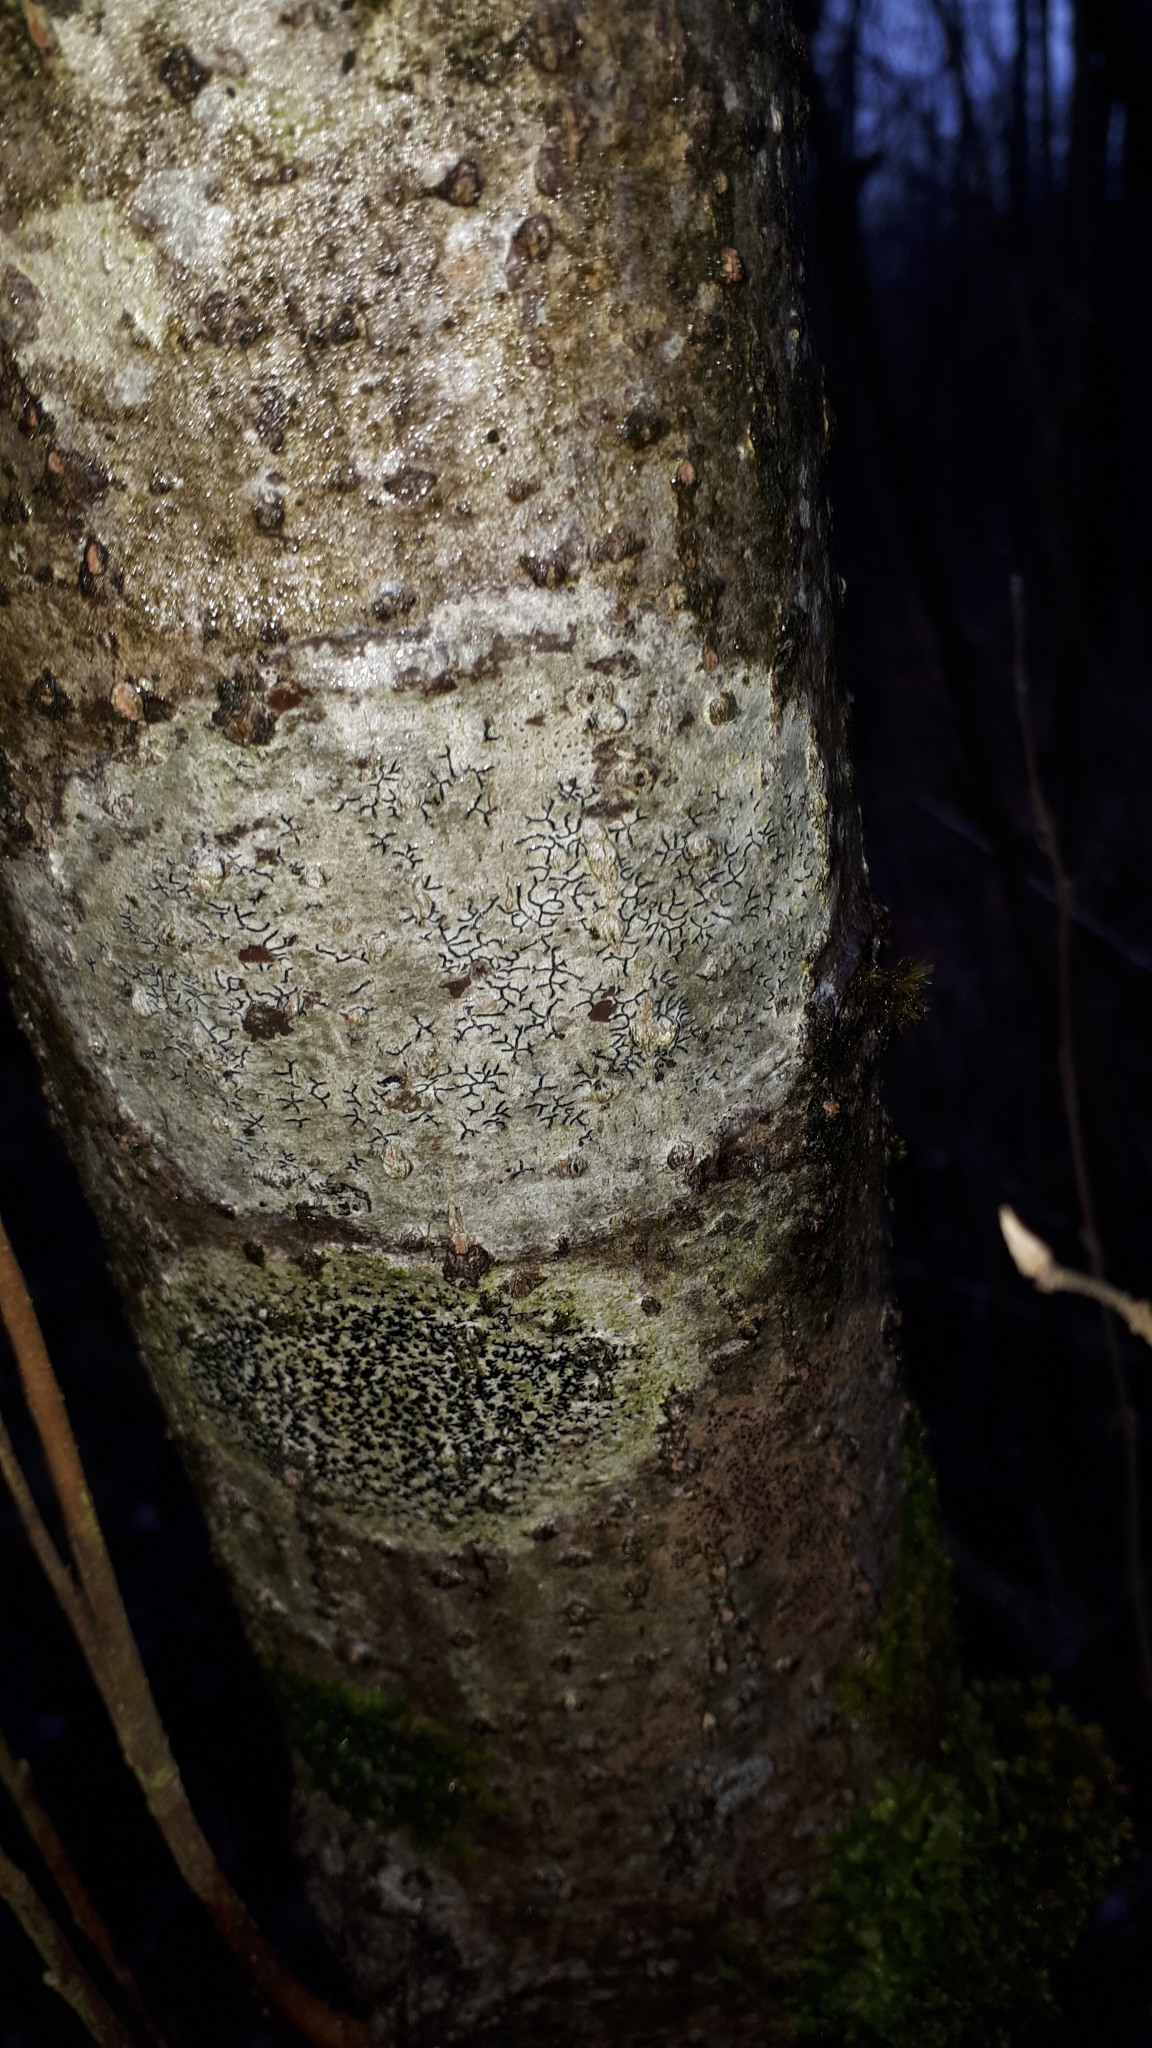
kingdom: Fungi
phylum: Ascomycota
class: Lecanoromycetes
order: Ostropales
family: Graphidaceae
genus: Graphis
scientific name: Graphis scripta
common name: Script lichen
